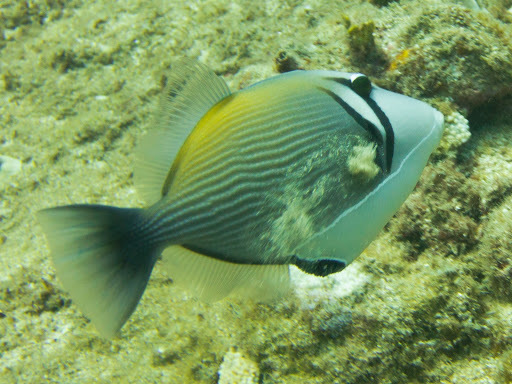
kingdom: Animalia
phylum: Chordata
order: Tetraodontiformes
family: Balistidae
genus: Sufflamen
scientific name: Sufflamen bursa
